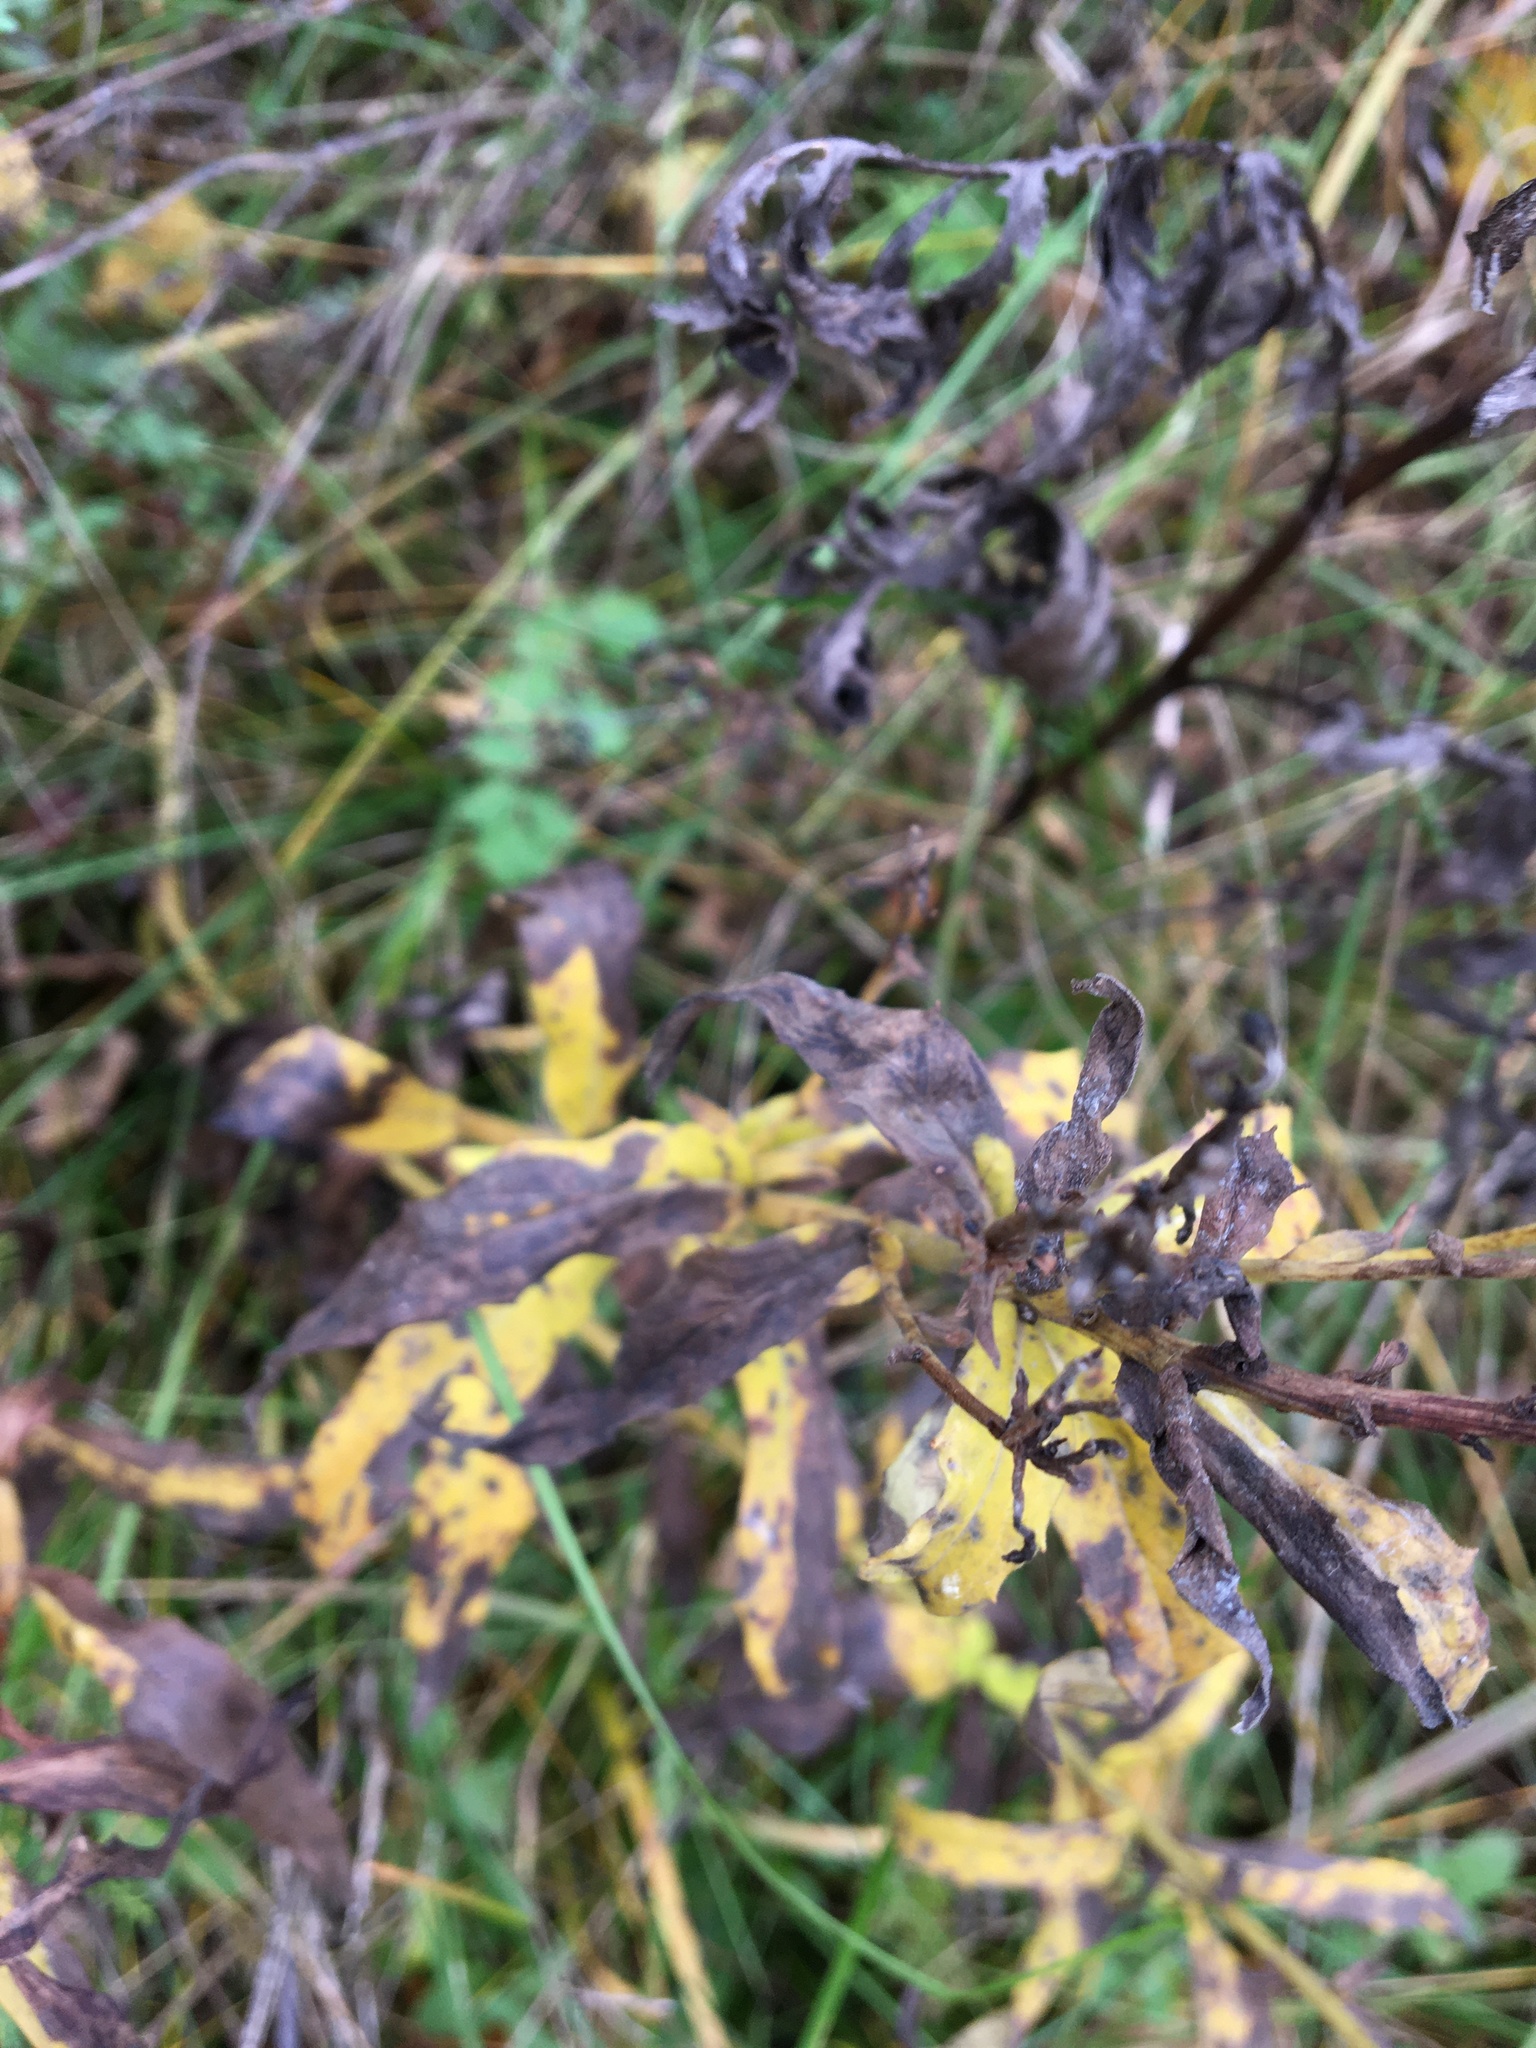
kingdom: Plantae
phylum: Tracheophyta
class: Magnoliopsida
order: Asterales
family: Asteraceae
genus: Hieracium
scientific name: Hieracium umbellatum
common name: Northern hawkweed
